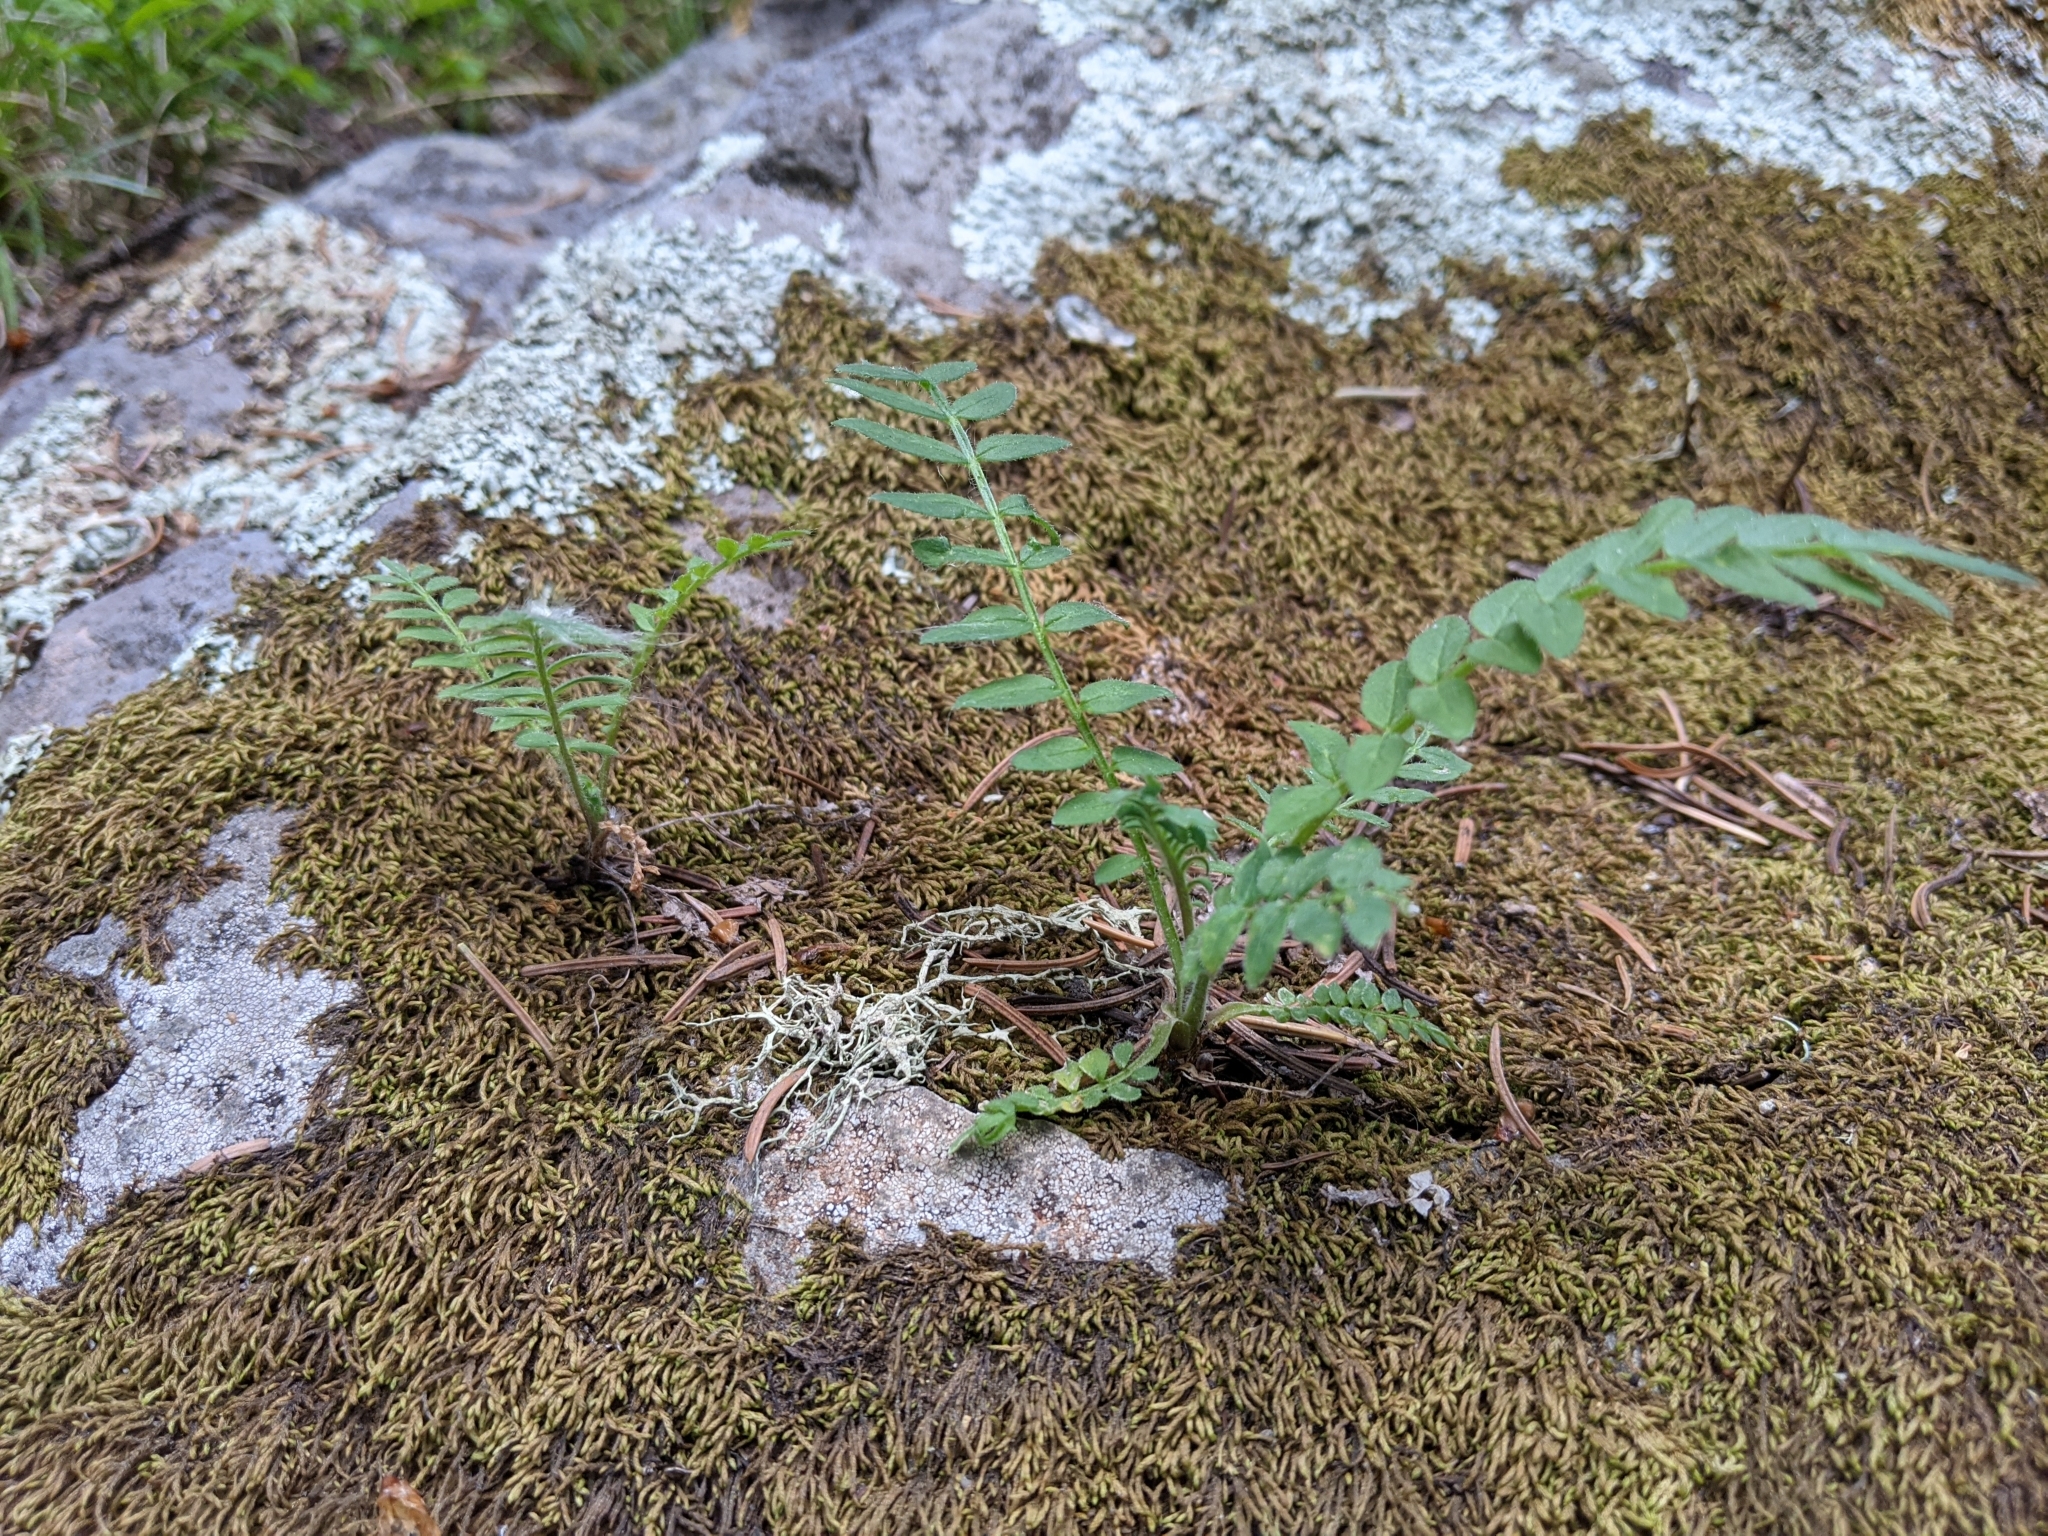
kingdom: Plantae
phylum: Tracheophyta
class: Magnoliopsida
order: Ericales
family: Polemoniaceae
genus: Polemonium
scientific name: Polemonium pulcherrimum
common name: Short jacob's-ladder
